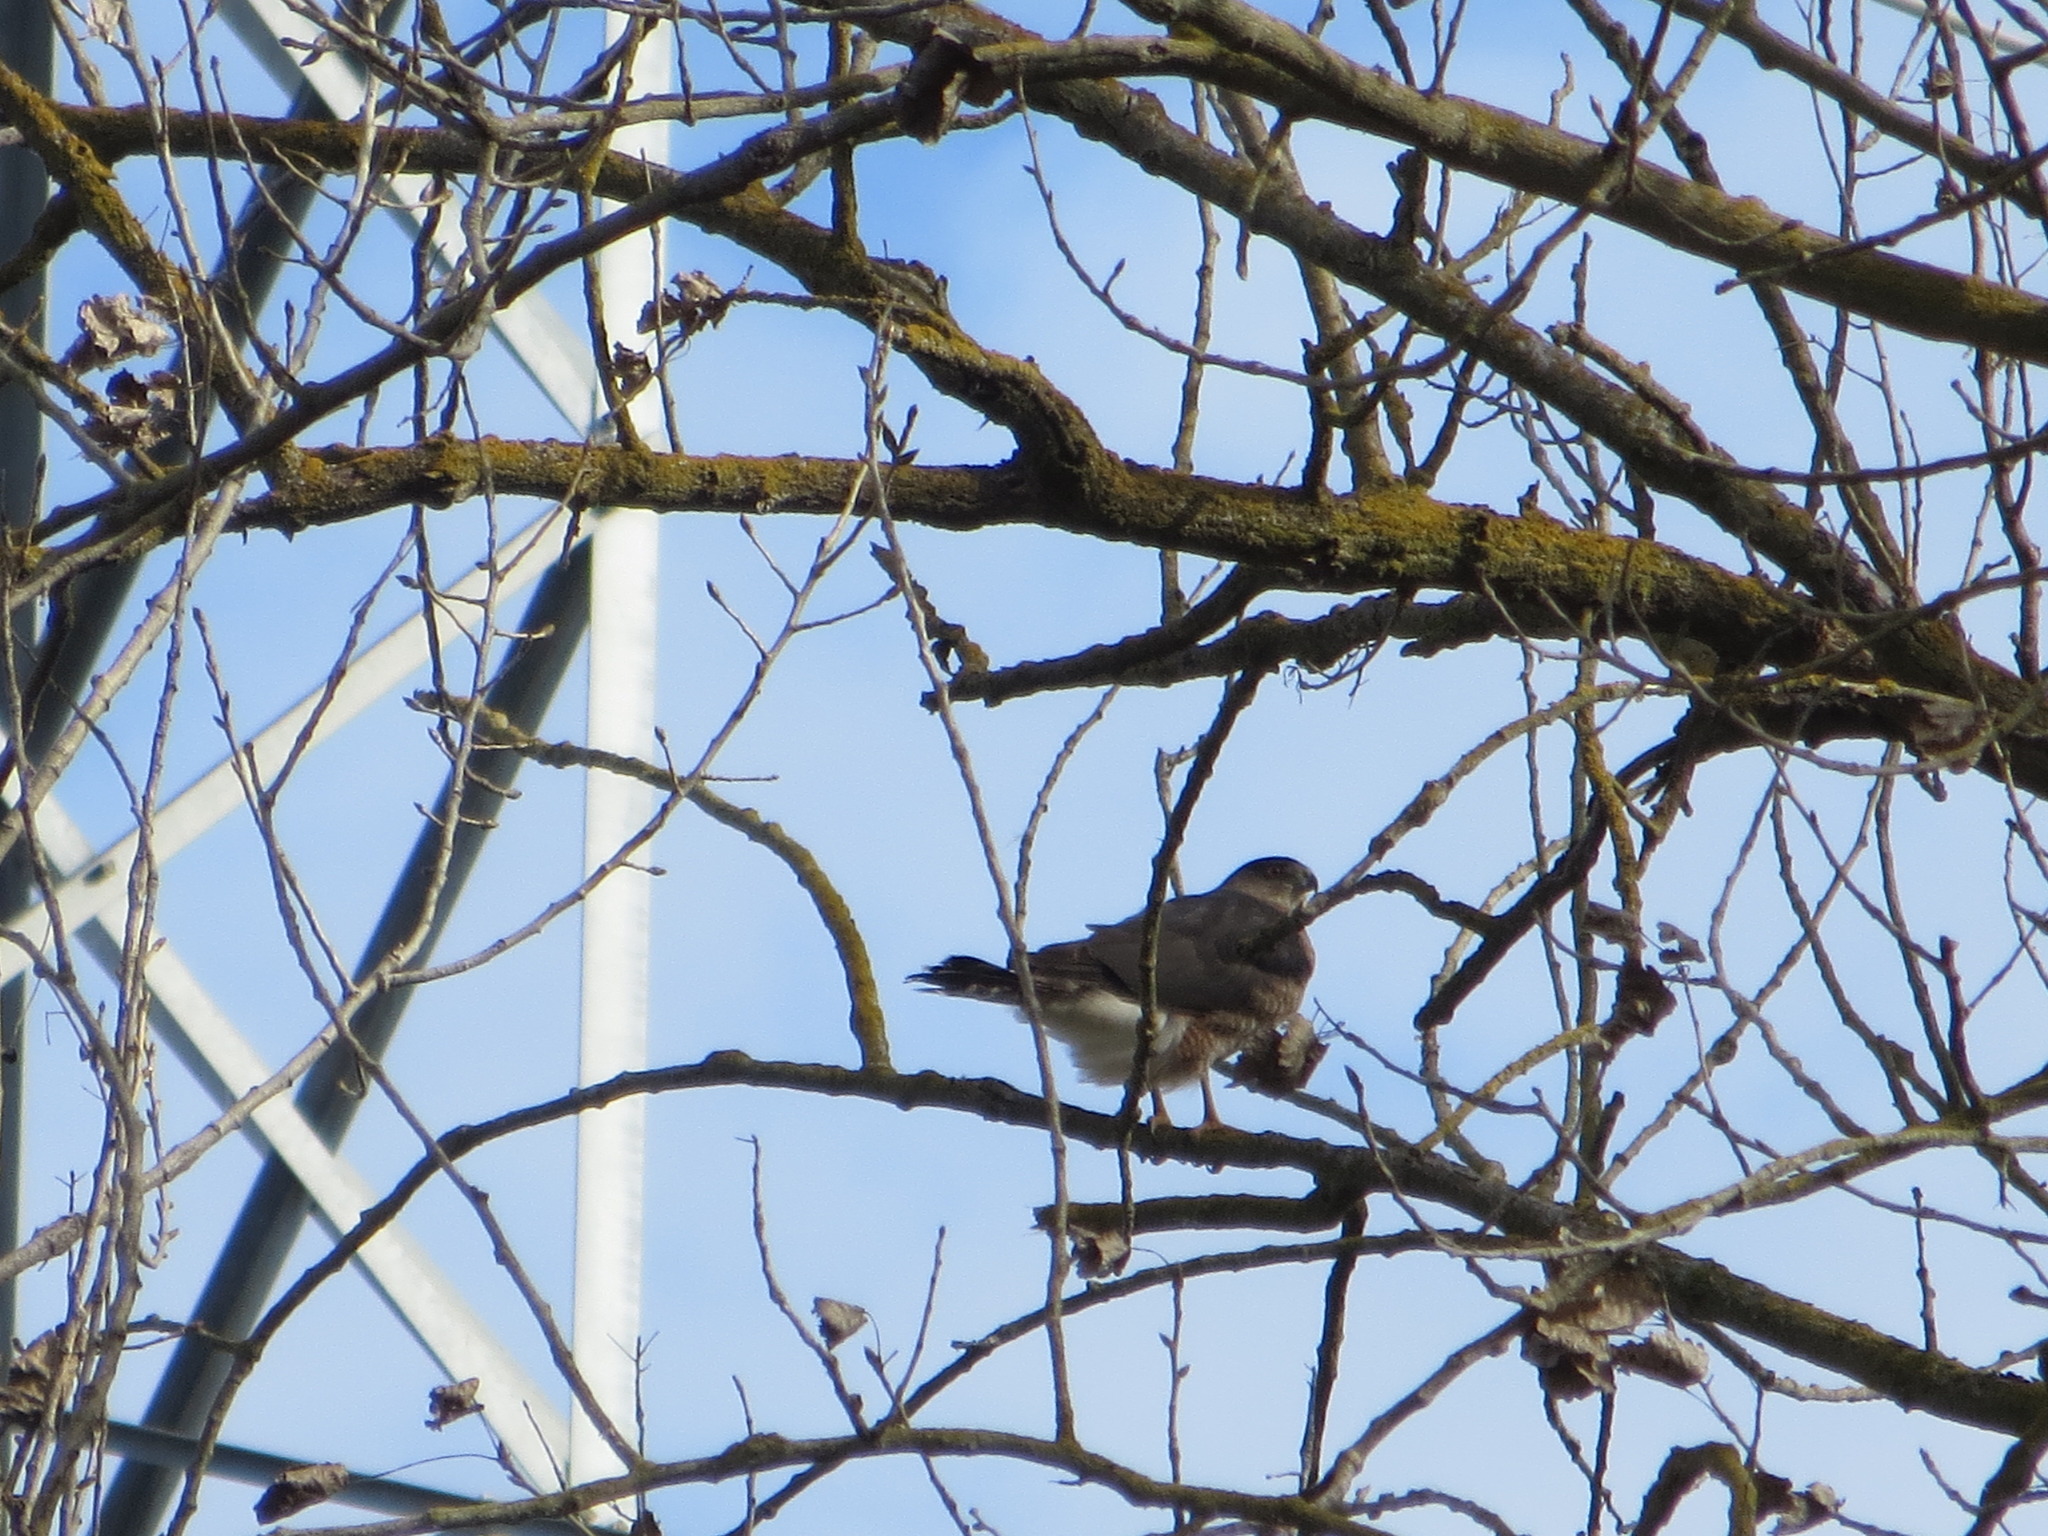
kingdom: Animalia
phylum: Chordata
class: Aves
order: Accipitriformes
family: Accipitridae
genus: Accipiter
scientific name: Accipiter cooperii
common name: Cooper's hawk
